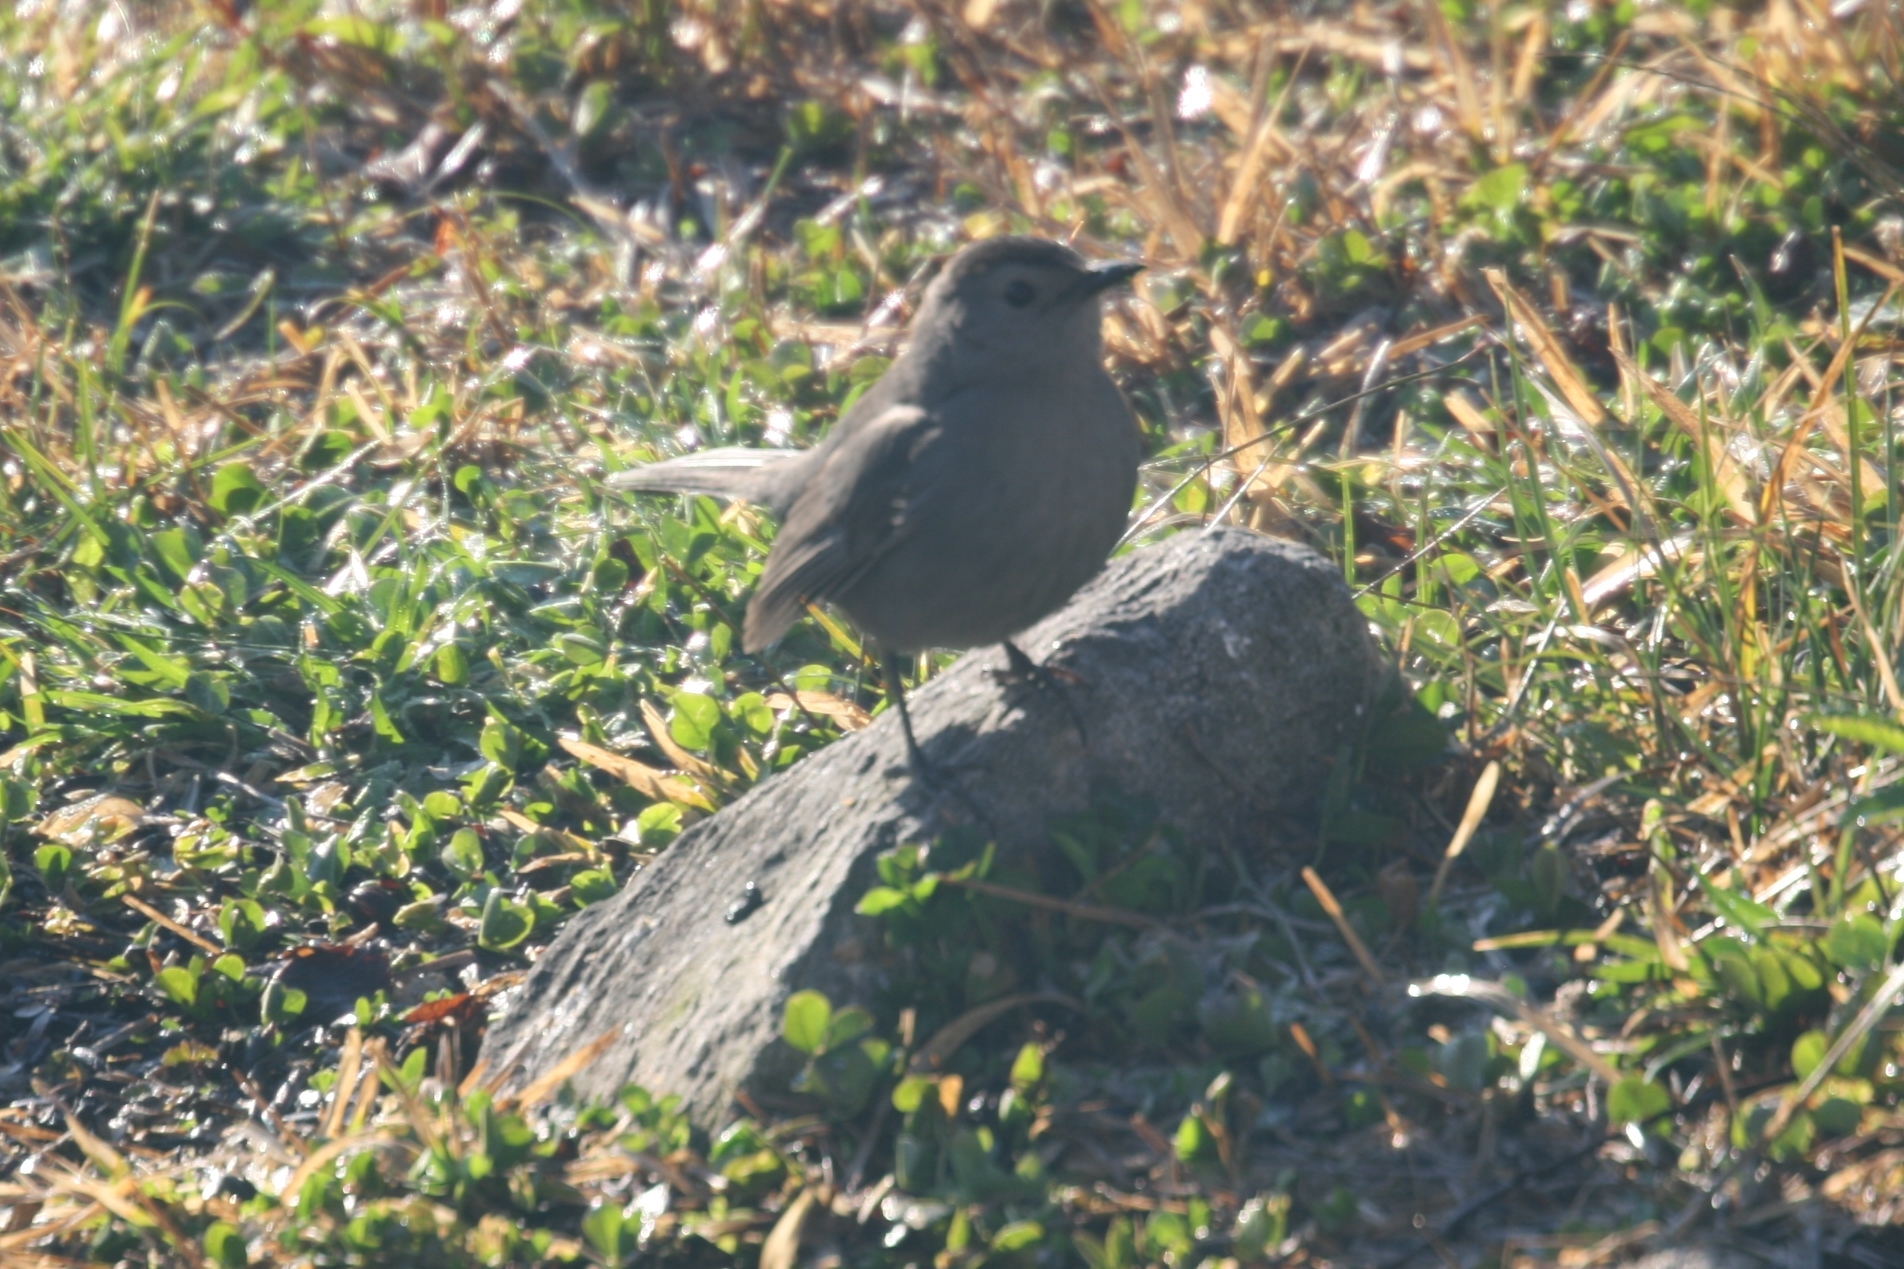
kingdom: Animalia
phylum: Chordata
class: Aves
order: Passeriformes
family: Mimidae
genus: Dumetella
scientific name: Dumetella carolinensis
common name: Gray catbird
